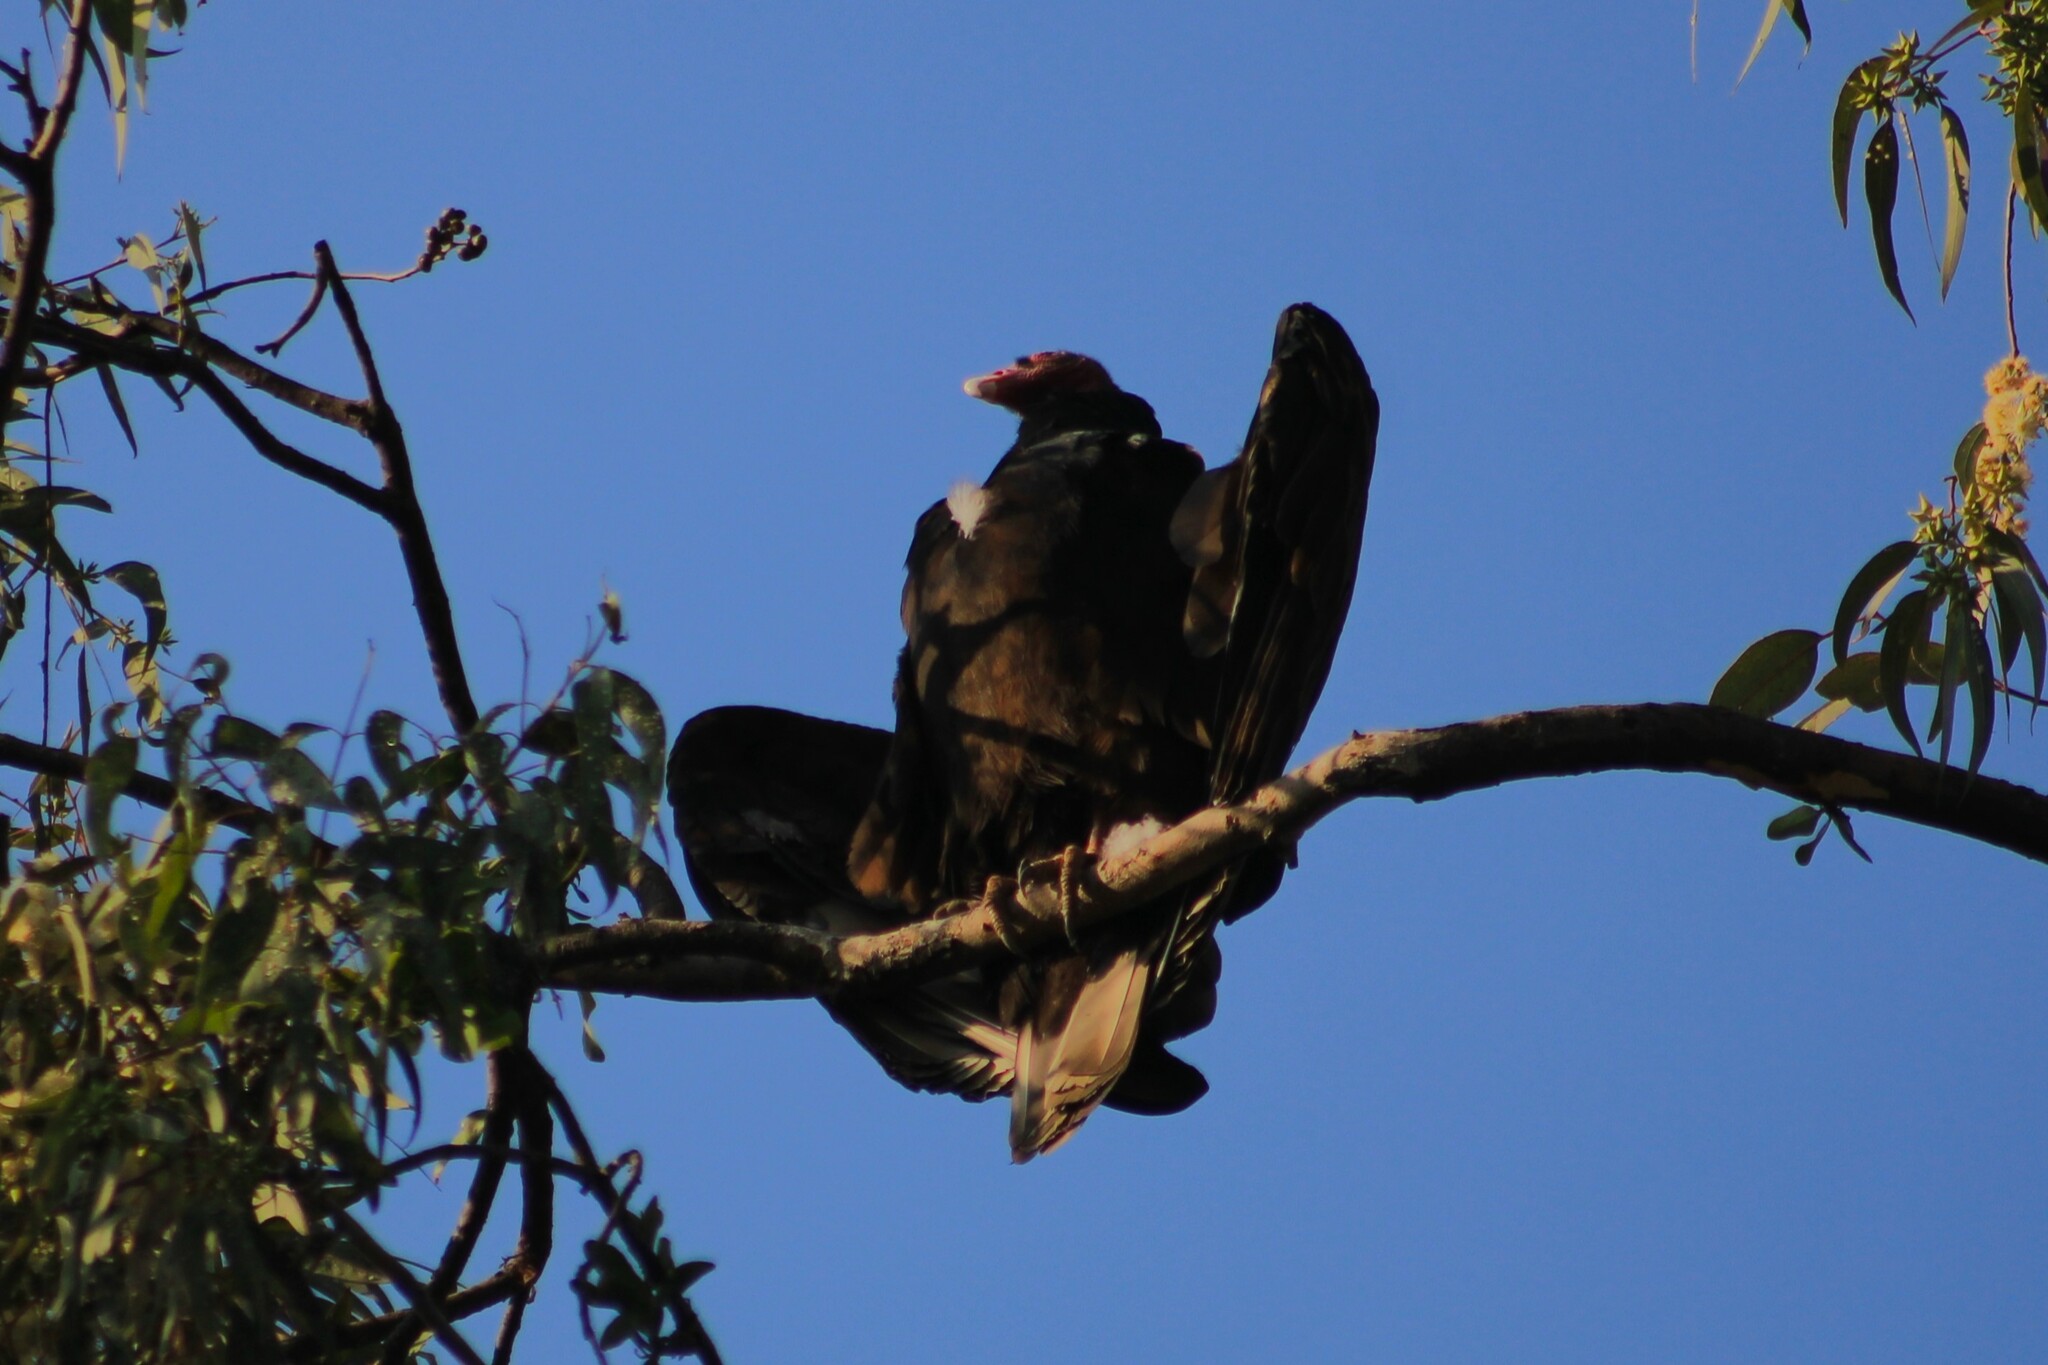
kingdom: Animalia
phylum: Chordata
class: Aves
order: Accipitriformes
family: Cathartidae
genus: Cathartes
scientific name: Cathartes aura
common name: Turkey vulture
